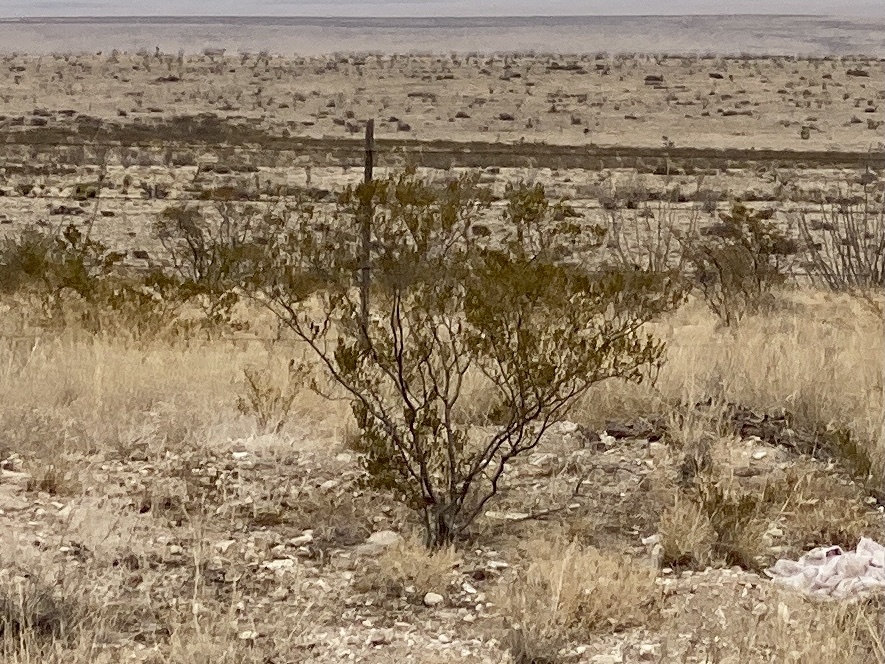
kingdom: Plantae
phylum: Tracheophyta
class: Magnoliopsida
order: Zygophyllales
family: Zygophyllaceae
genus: Larrea
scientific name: Larrea tridentata
